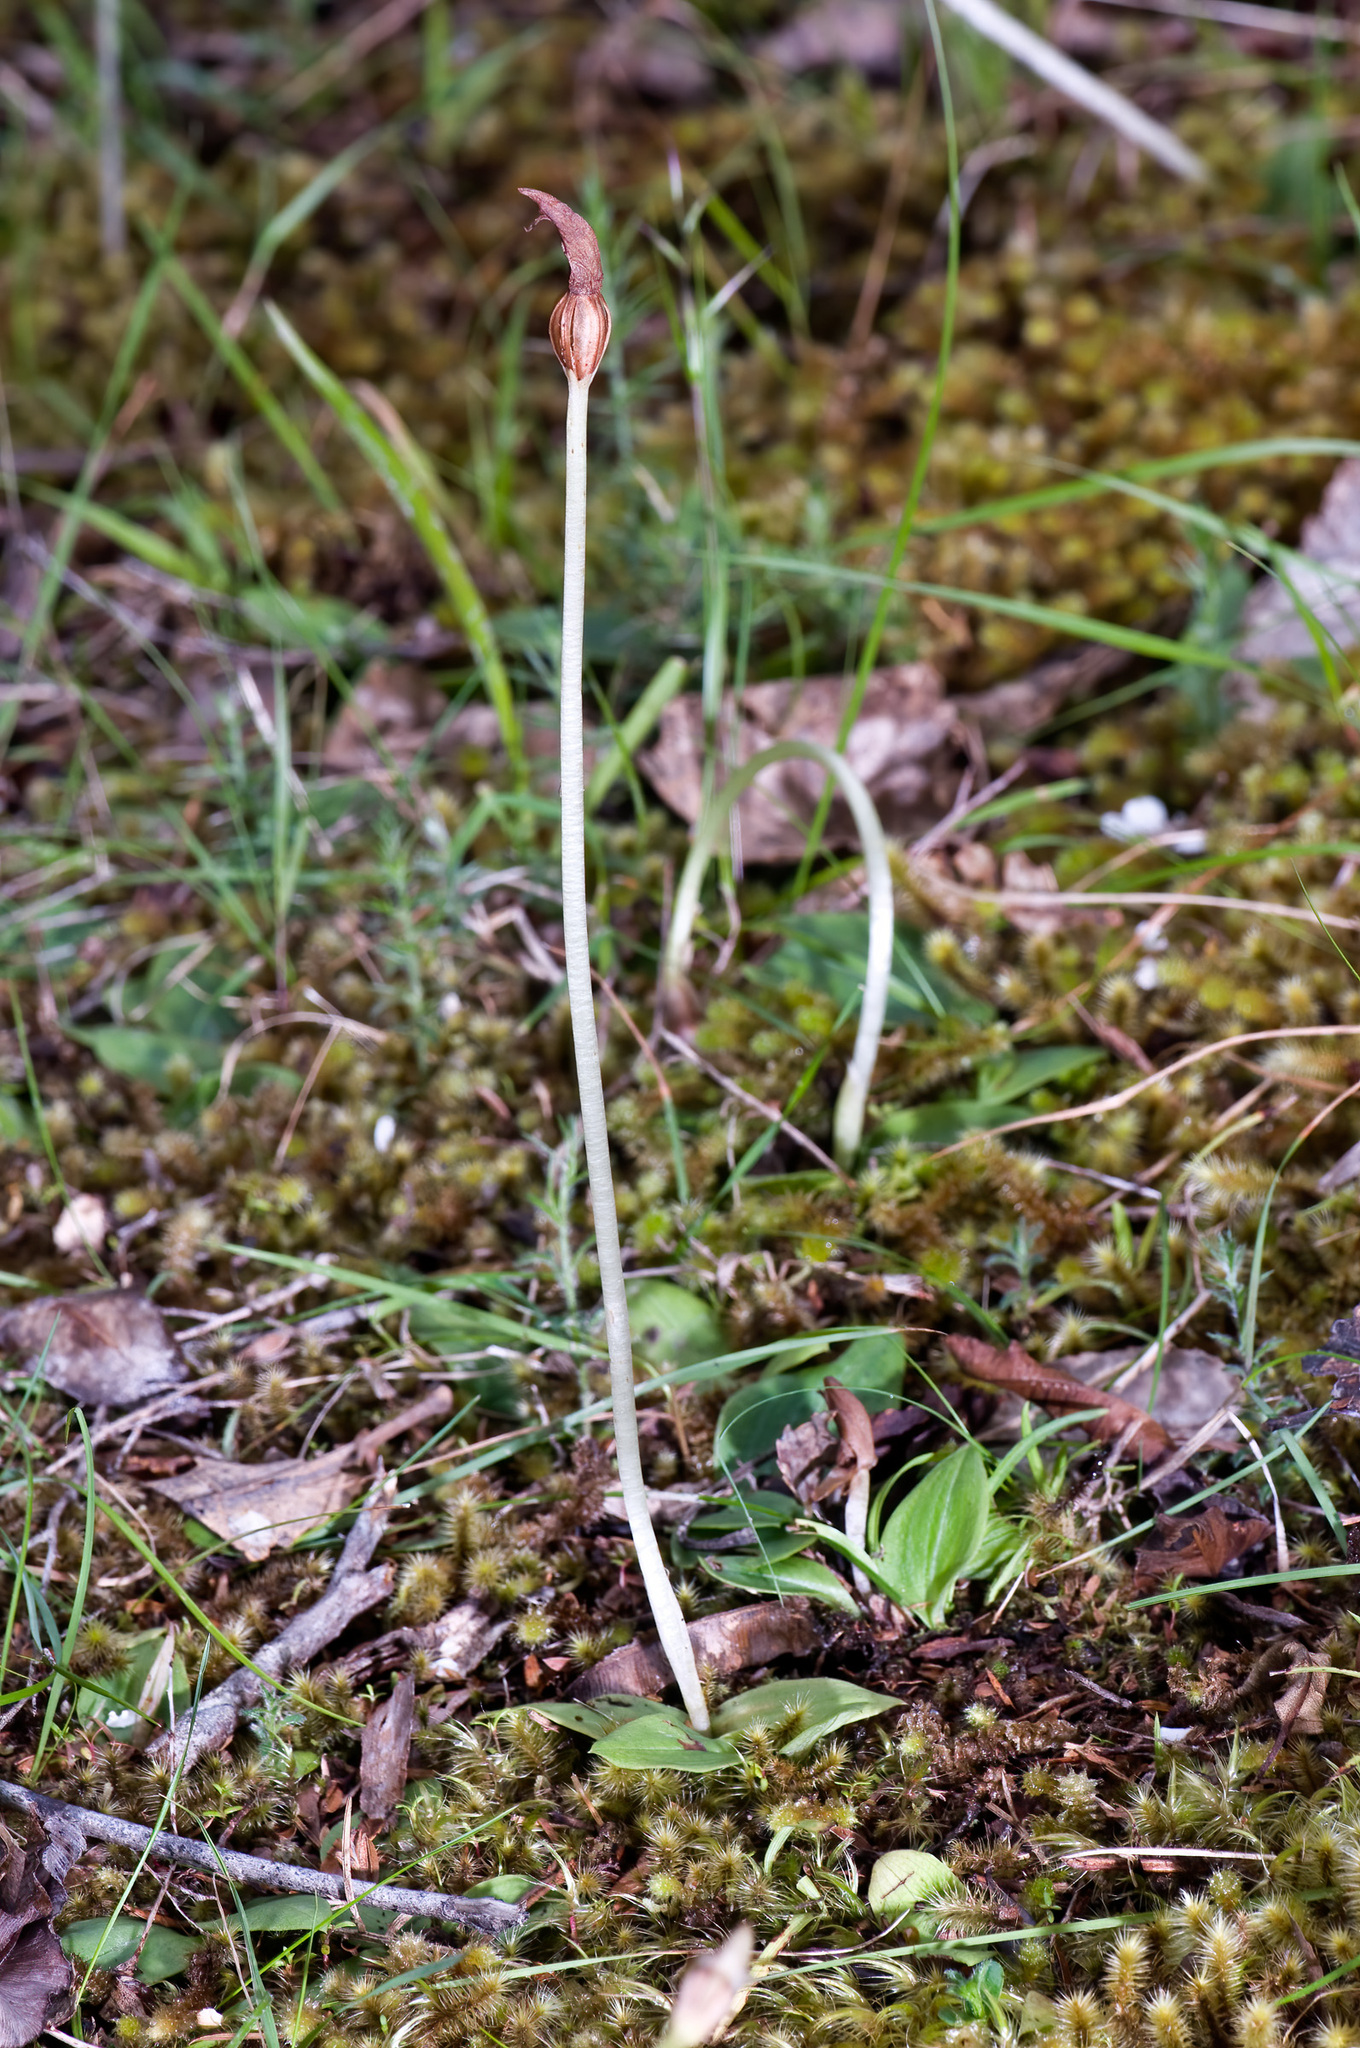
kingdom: Plantae
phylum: Tracheophyta
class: Liliopsida
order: Asparagales
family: Orchidaceae
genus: Chiloglottis
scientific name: Chiloglottis cornuta
